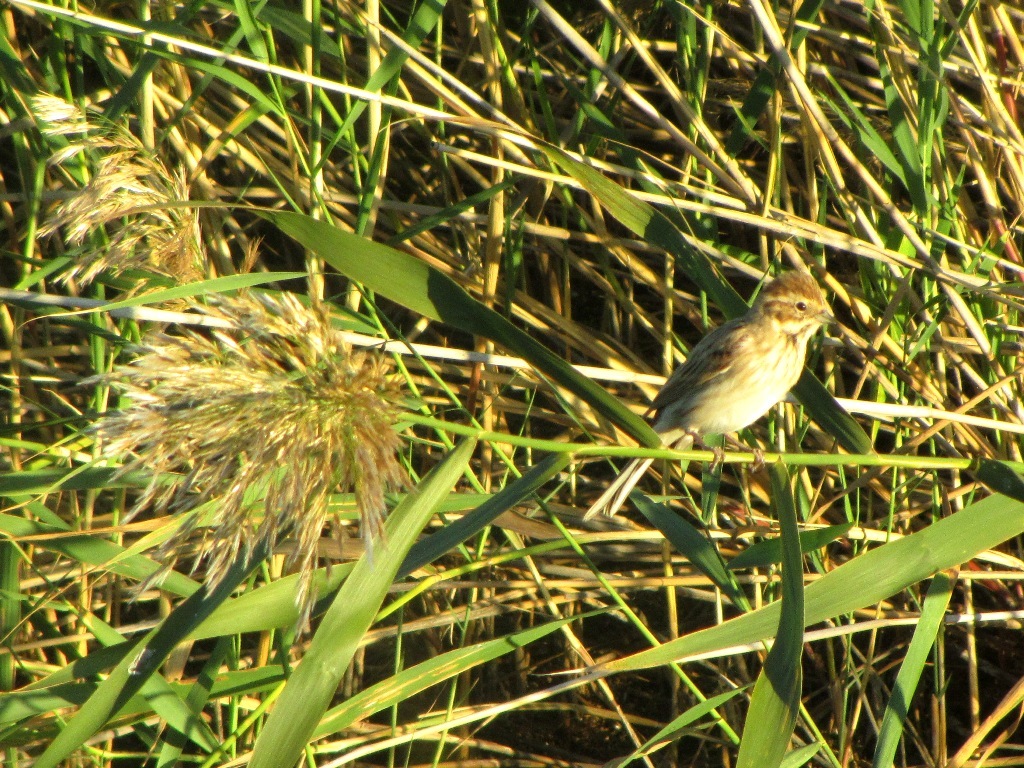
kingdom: Animalia
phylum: Chordata
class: Aves
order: Passeriformes
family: Emberizidae
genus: Emberiza
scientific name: Emberiza schoeniclus
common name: Reed bunting
